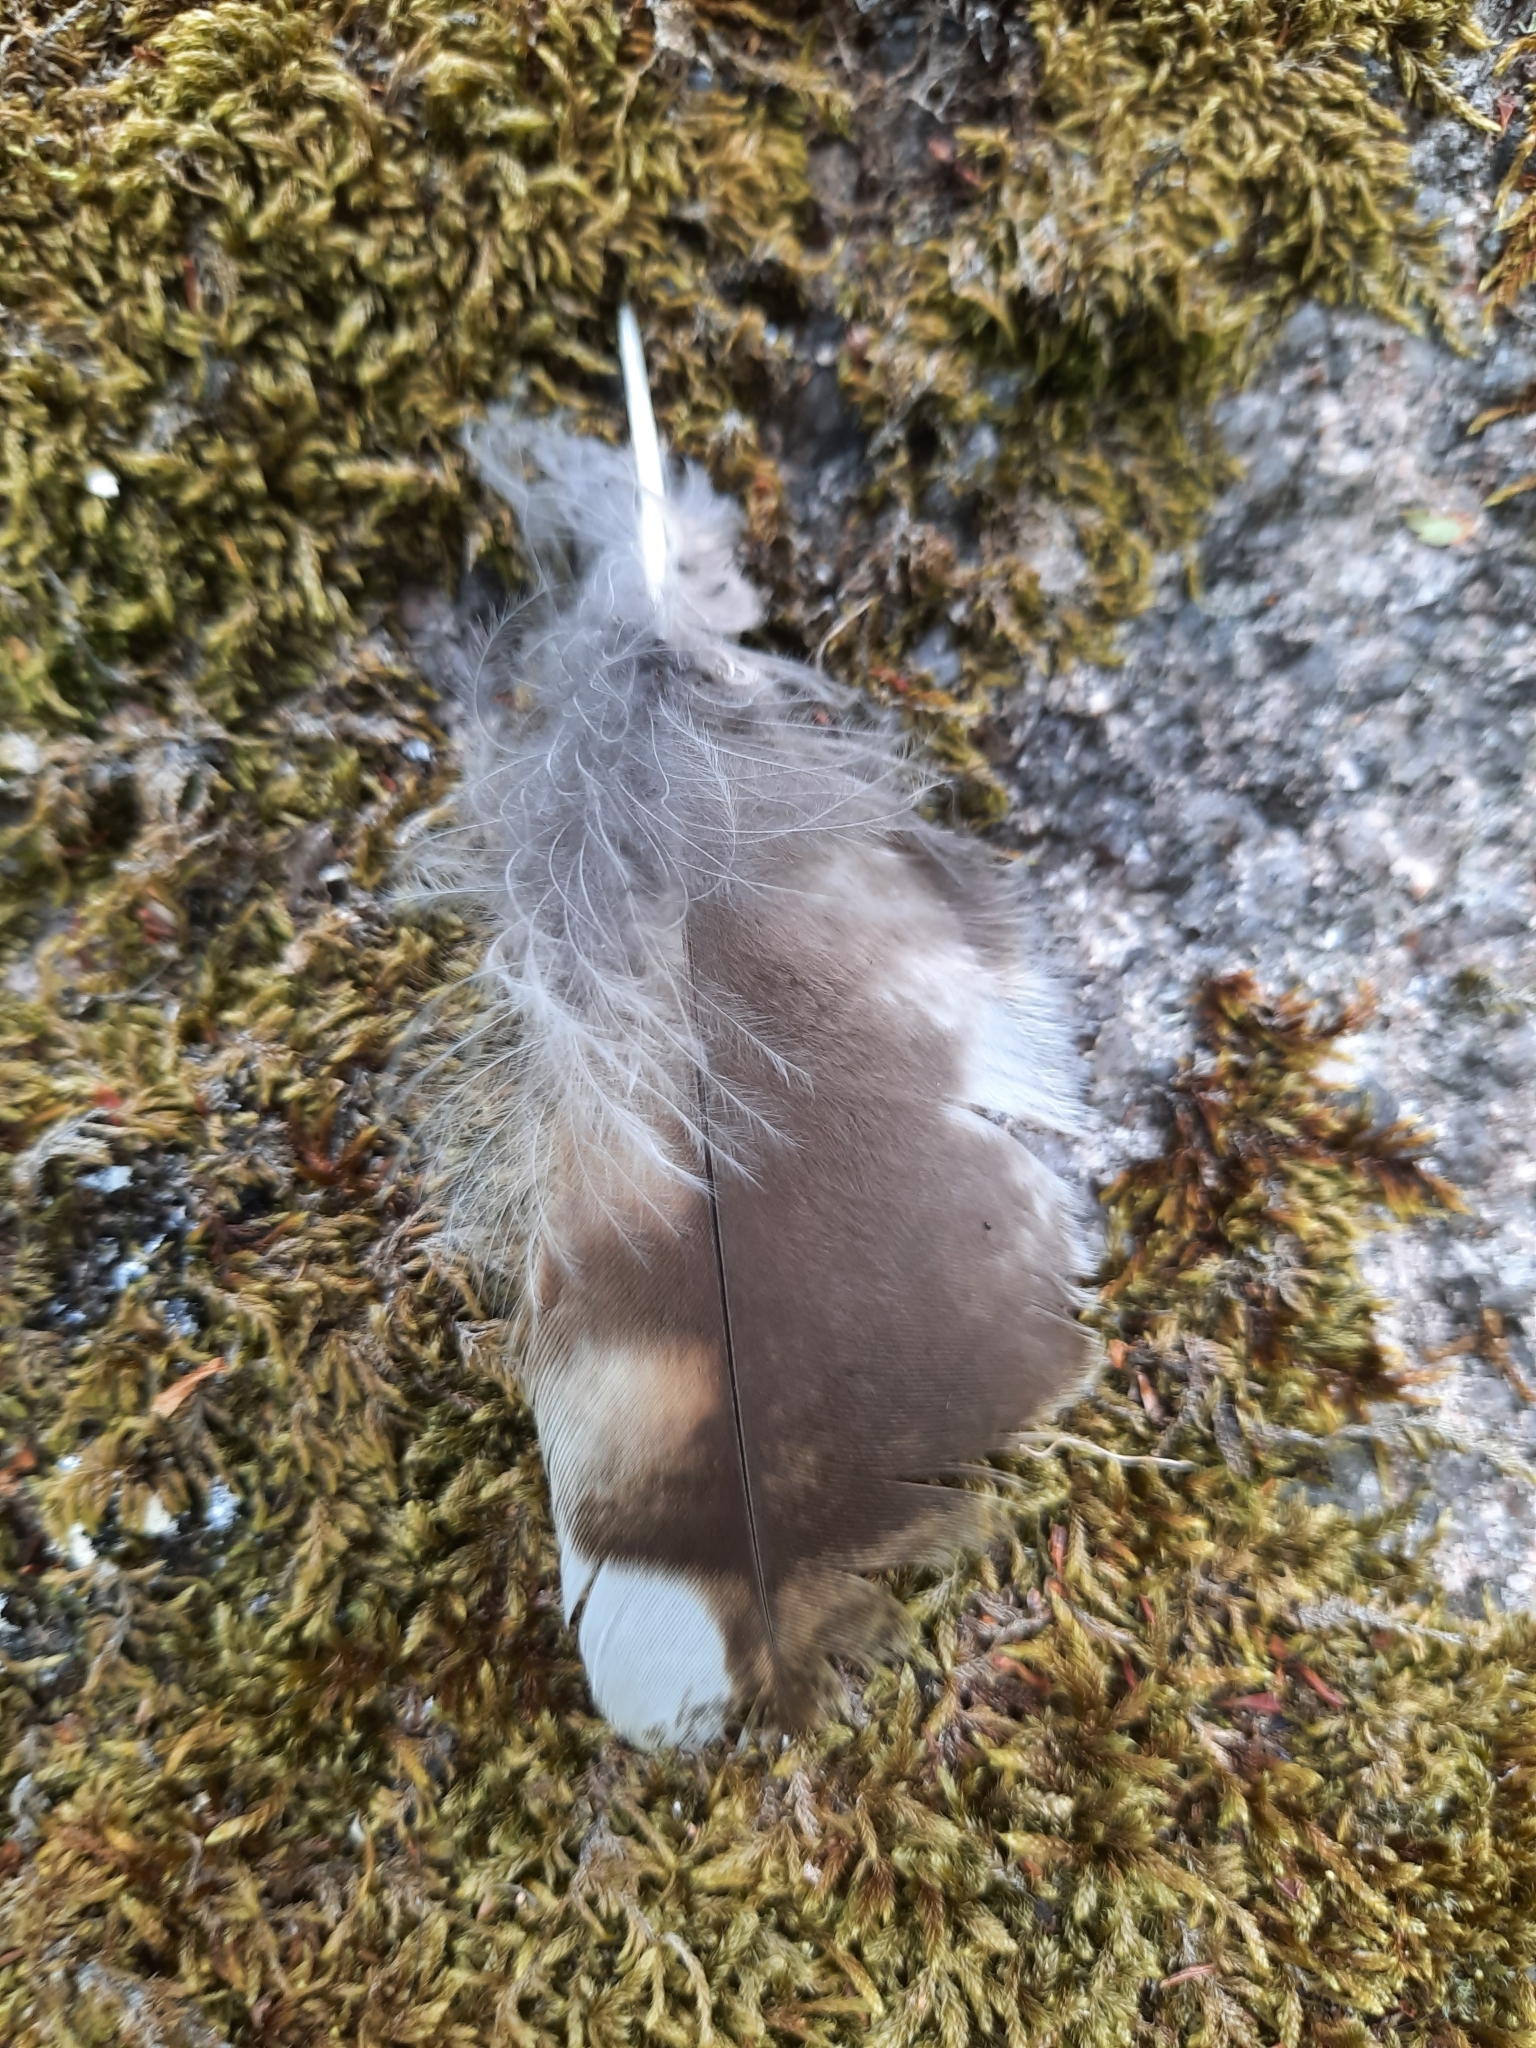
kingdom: Animalia
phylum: Chordata
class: Aves
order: Strigiformes
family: Strigidae
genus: Strix
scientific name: Strix aluco
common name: Tawny owl
